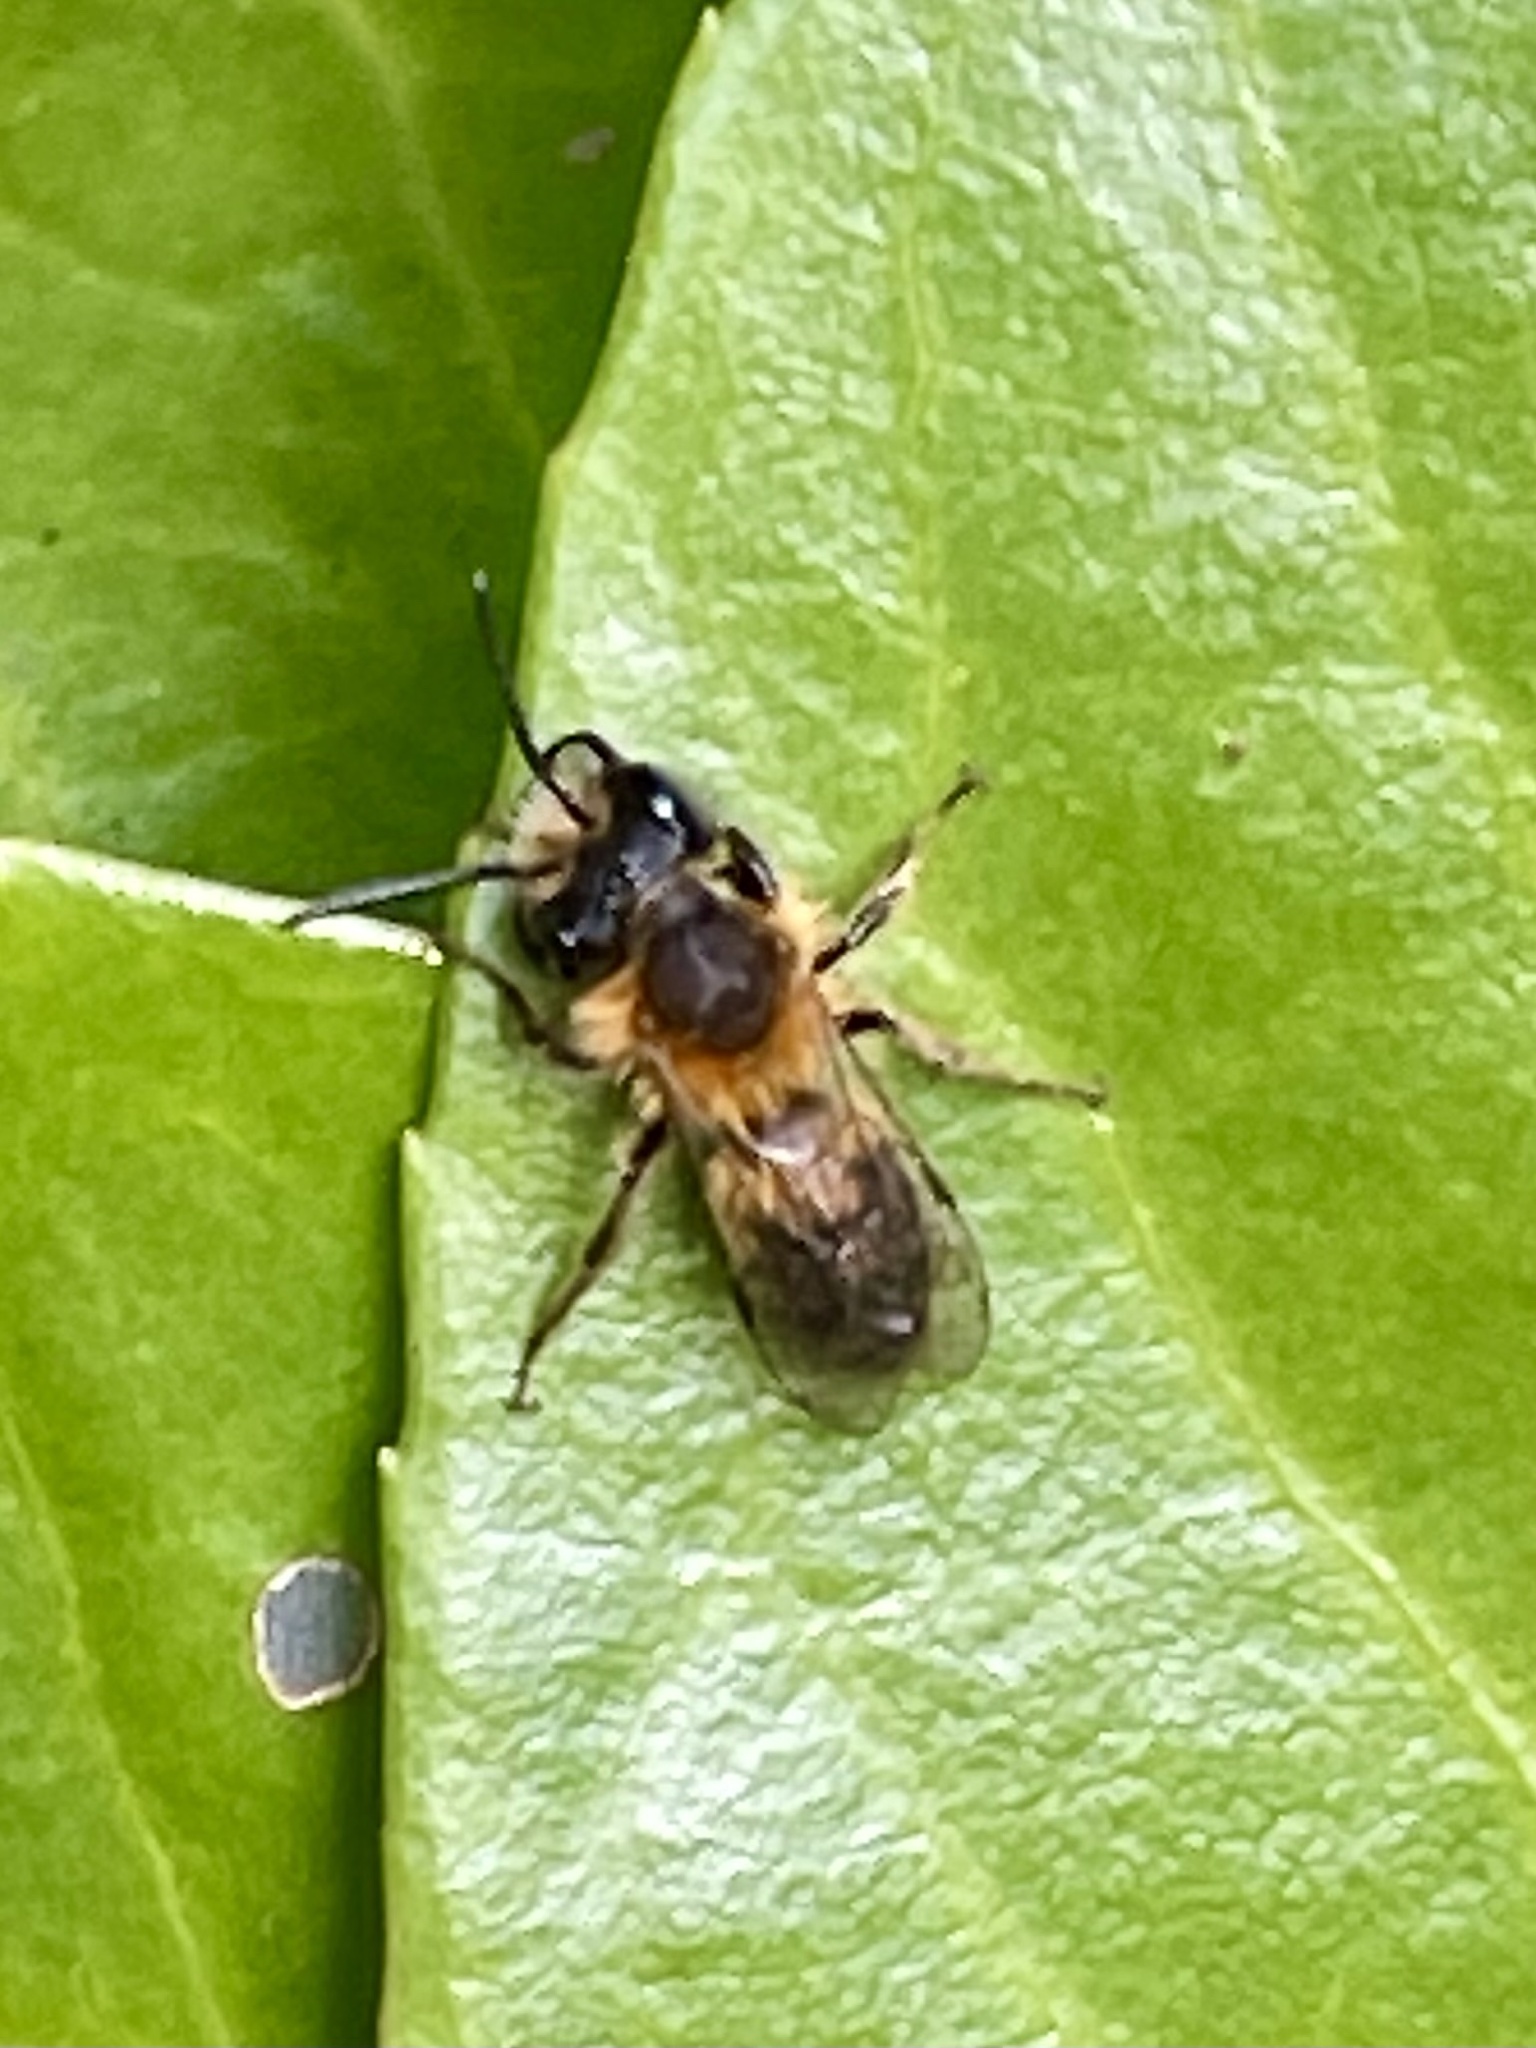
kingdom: Animalia
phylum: Arthropoda
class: Insecta
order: Hymenoptera
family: Andrenidae
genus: Andrena
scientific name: Andrena fulva
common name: Tawny mining bee
